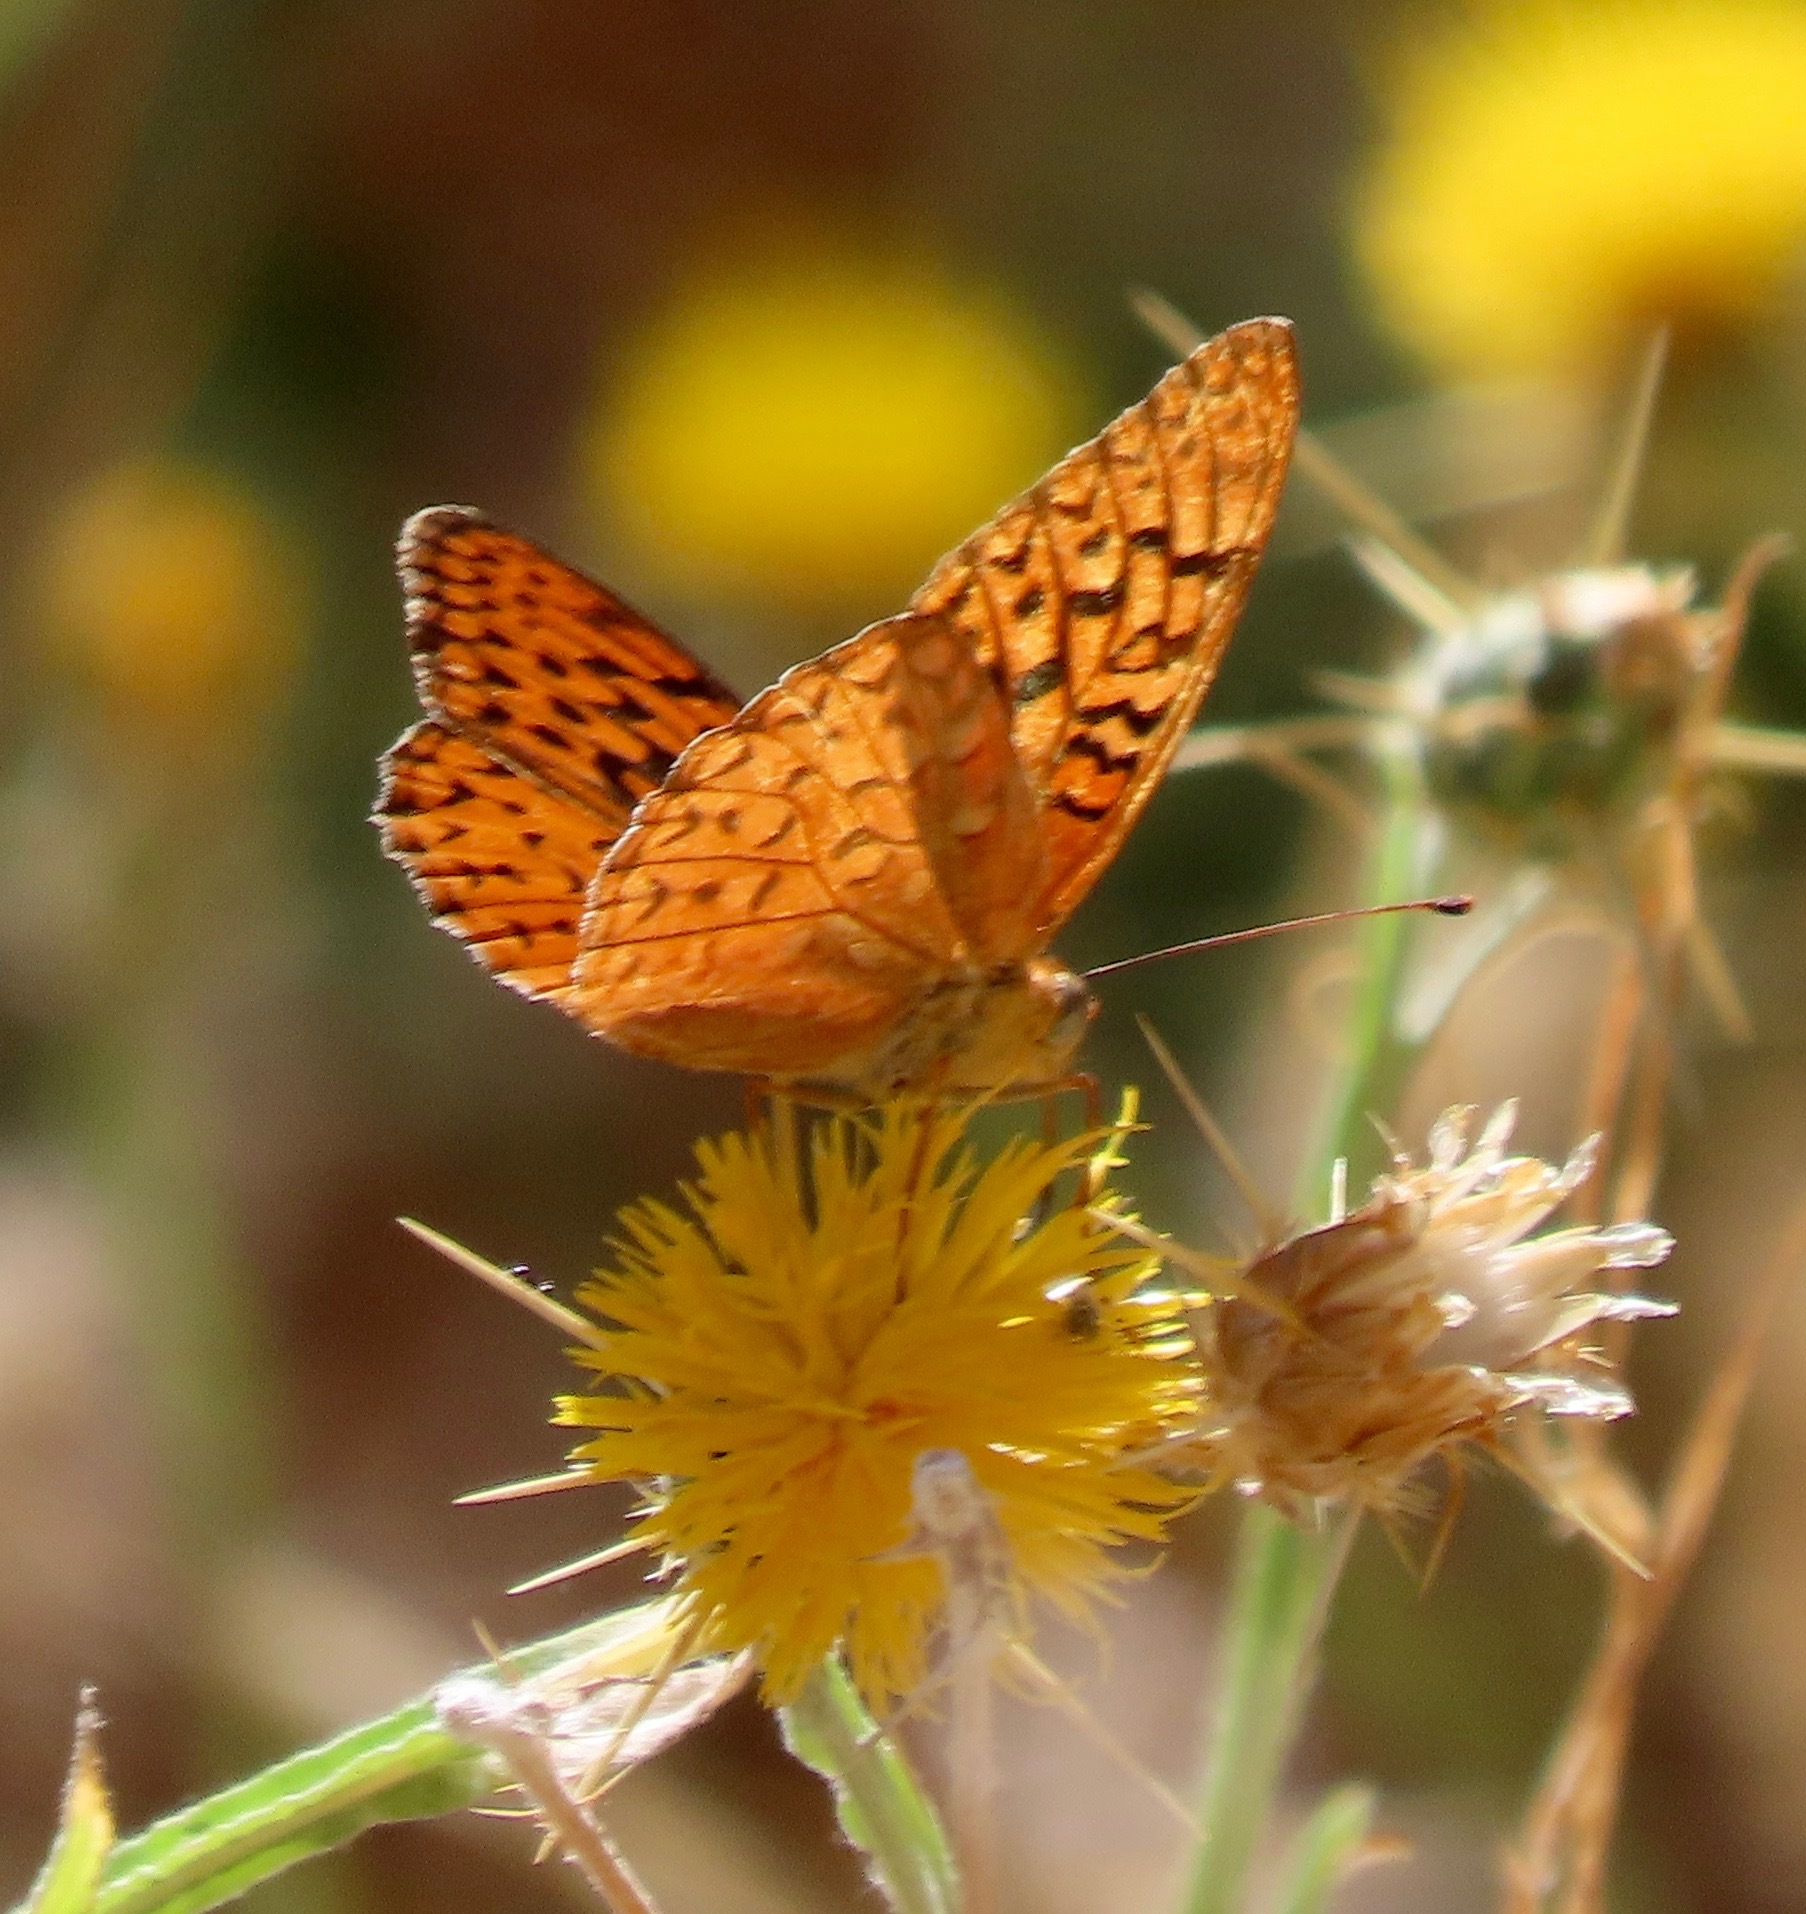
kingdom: Animalia
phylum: Arthropoda
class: Insecta
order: Lepidoptera
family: Nymphalidae
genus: Speyeria
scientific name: Speyeria adiaste
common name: Unsilvered fritillary
